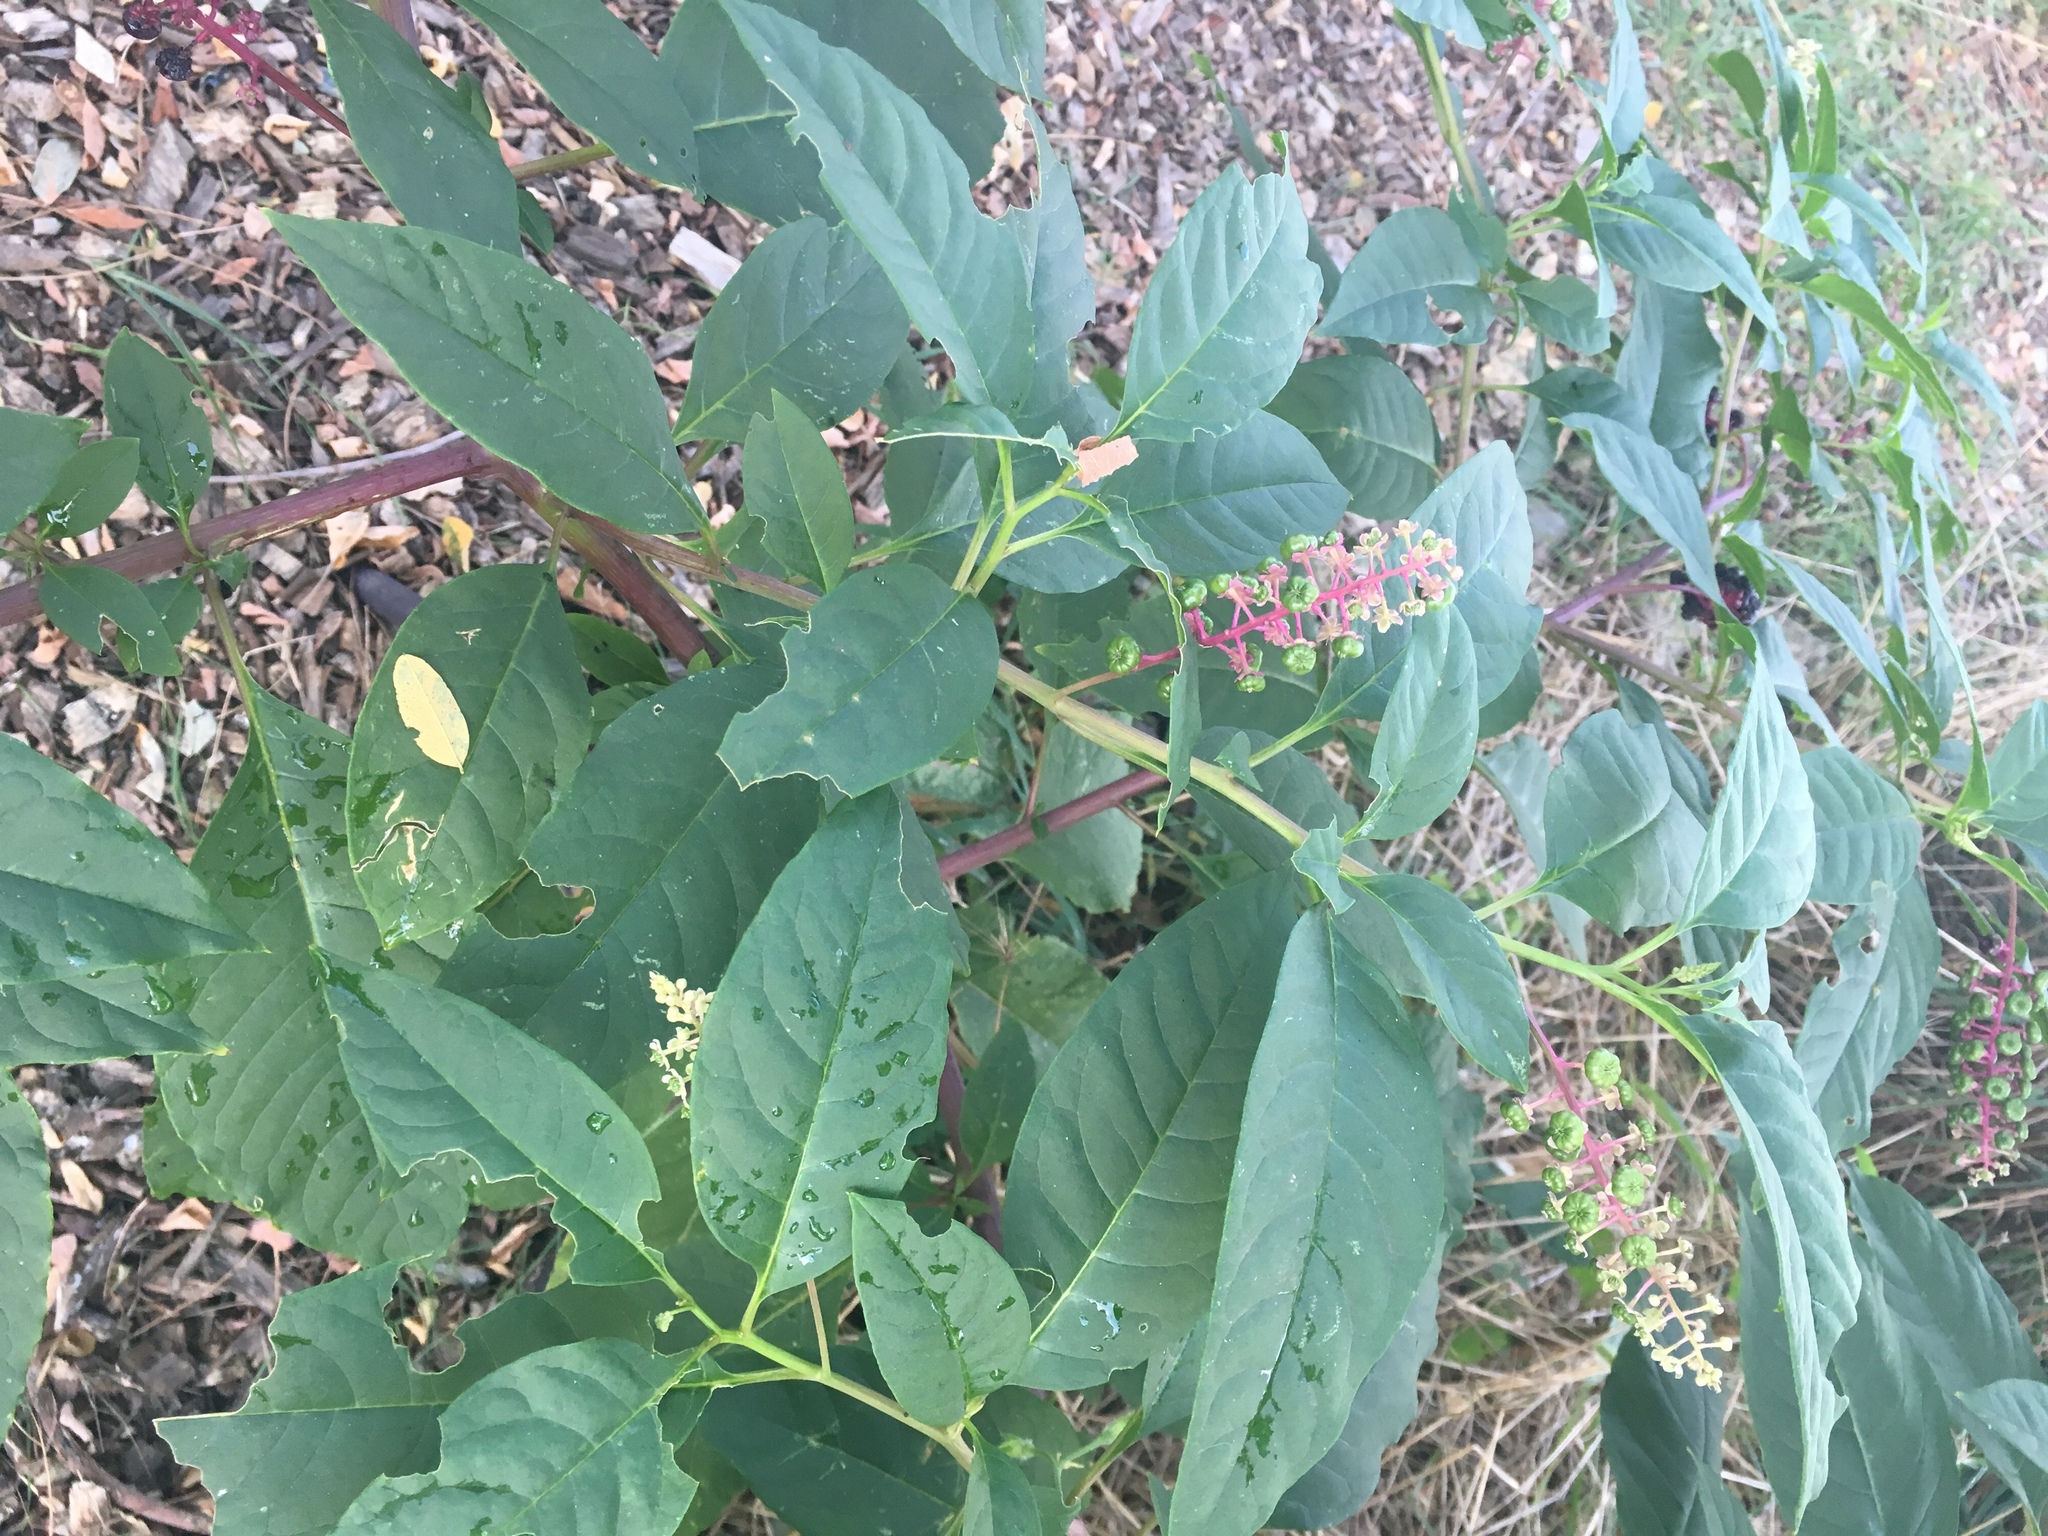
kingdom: Plantae
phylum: Tracheophyta
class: Magnoliopsida
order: Caryophyllales
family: Phytolaccaceae
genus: Phytolacca
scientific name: Phytolacca americana
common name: American pokeweed
